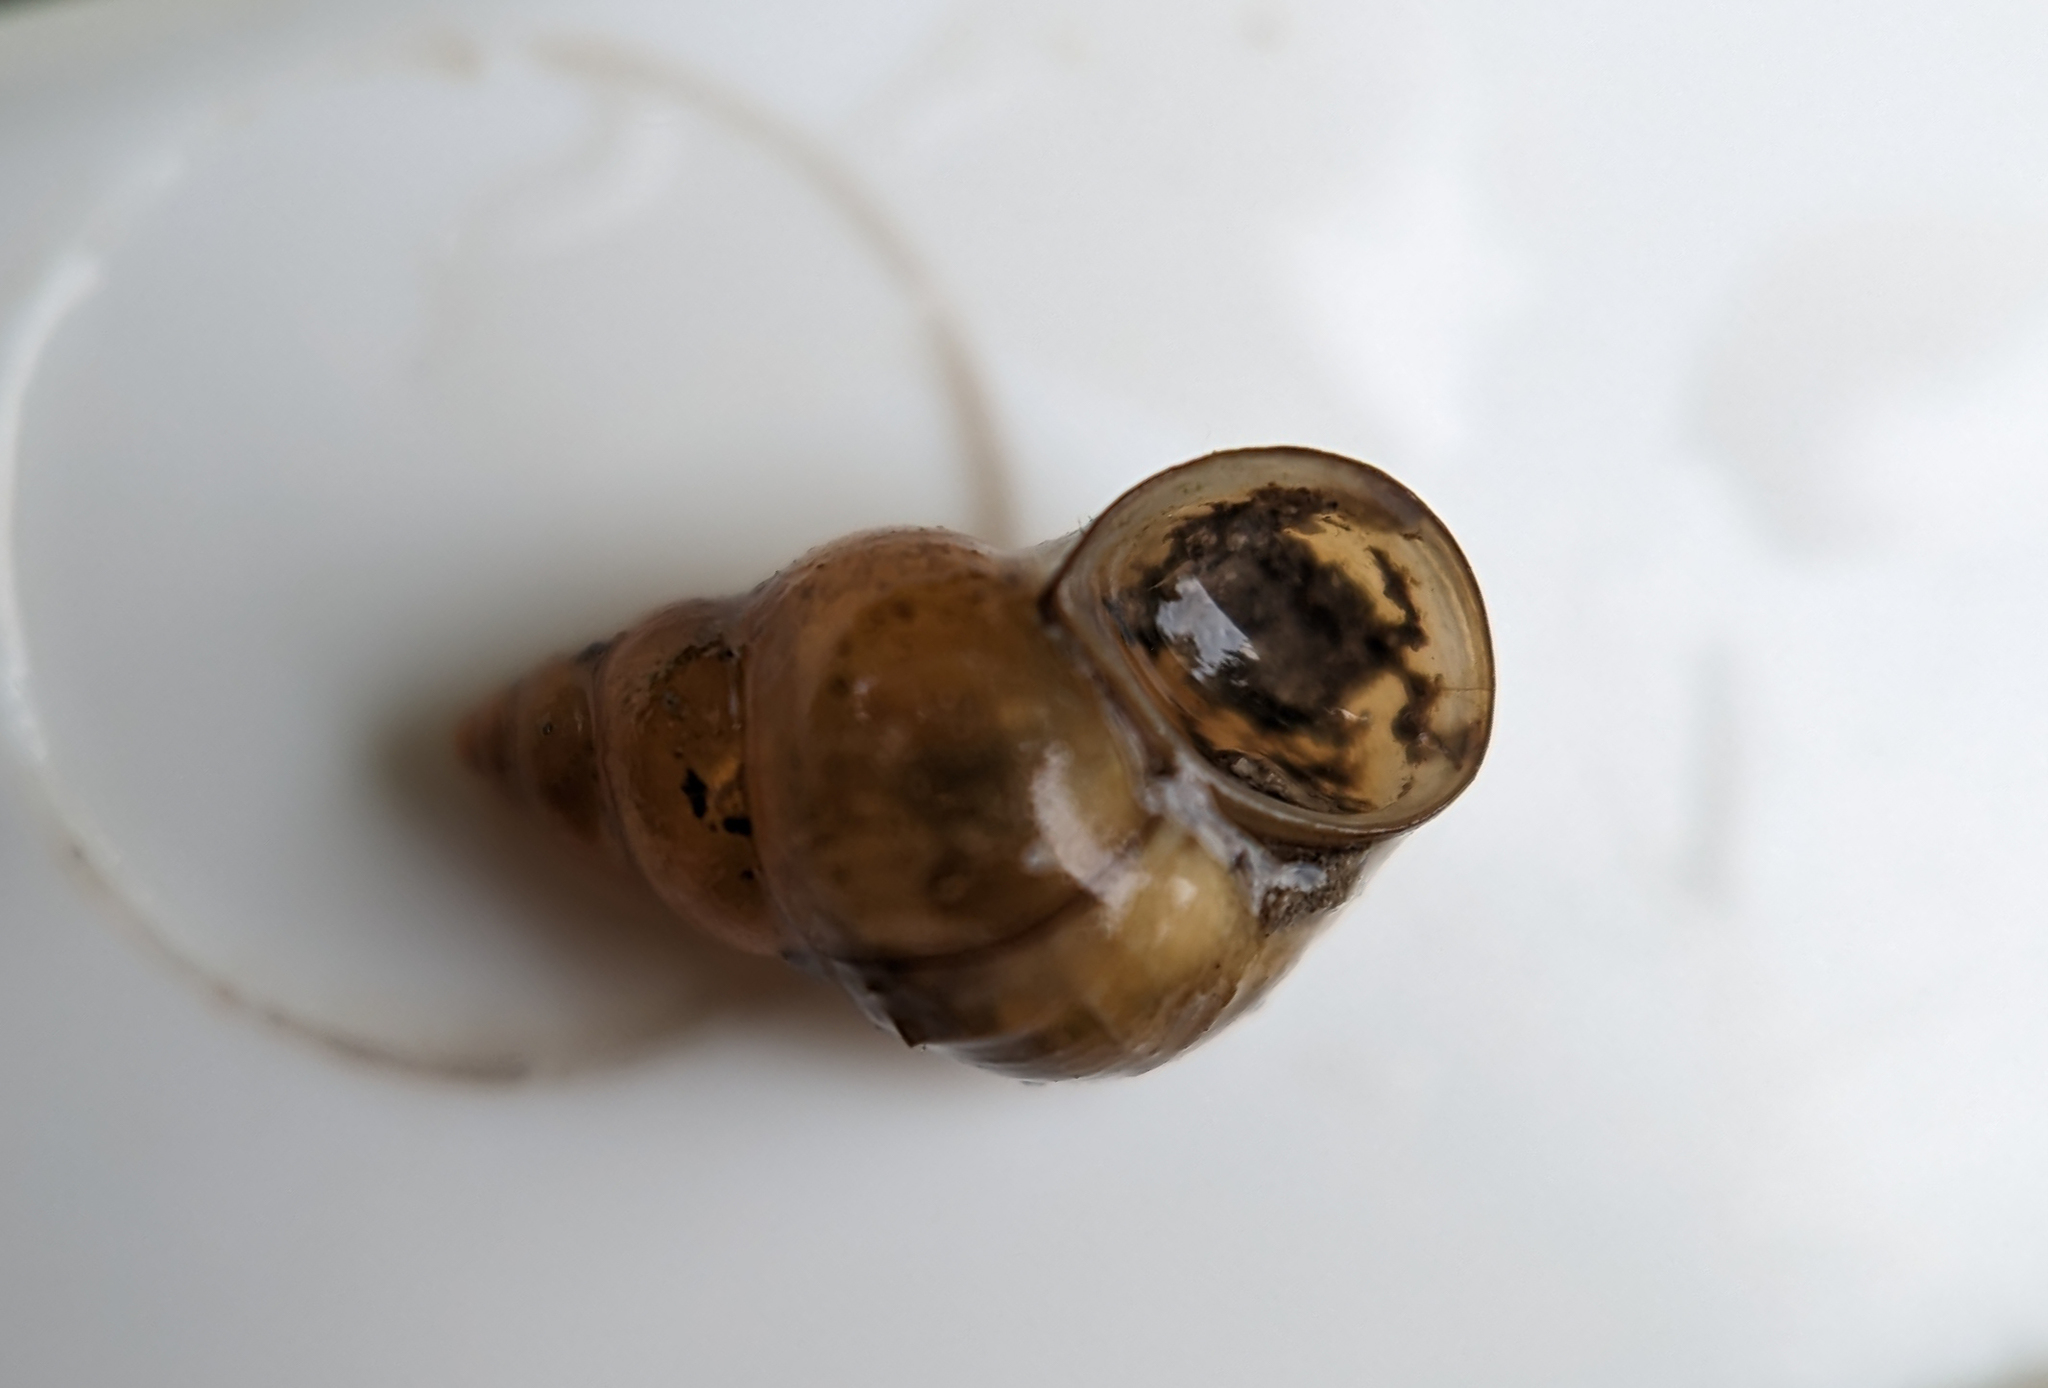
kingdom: Animalia
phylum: Mollusca
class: Gastropoda
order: Littorinimorpha
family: Bithyniidae
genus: Bithynia
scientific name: Bithynia tentaculata
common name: Common bithynia
